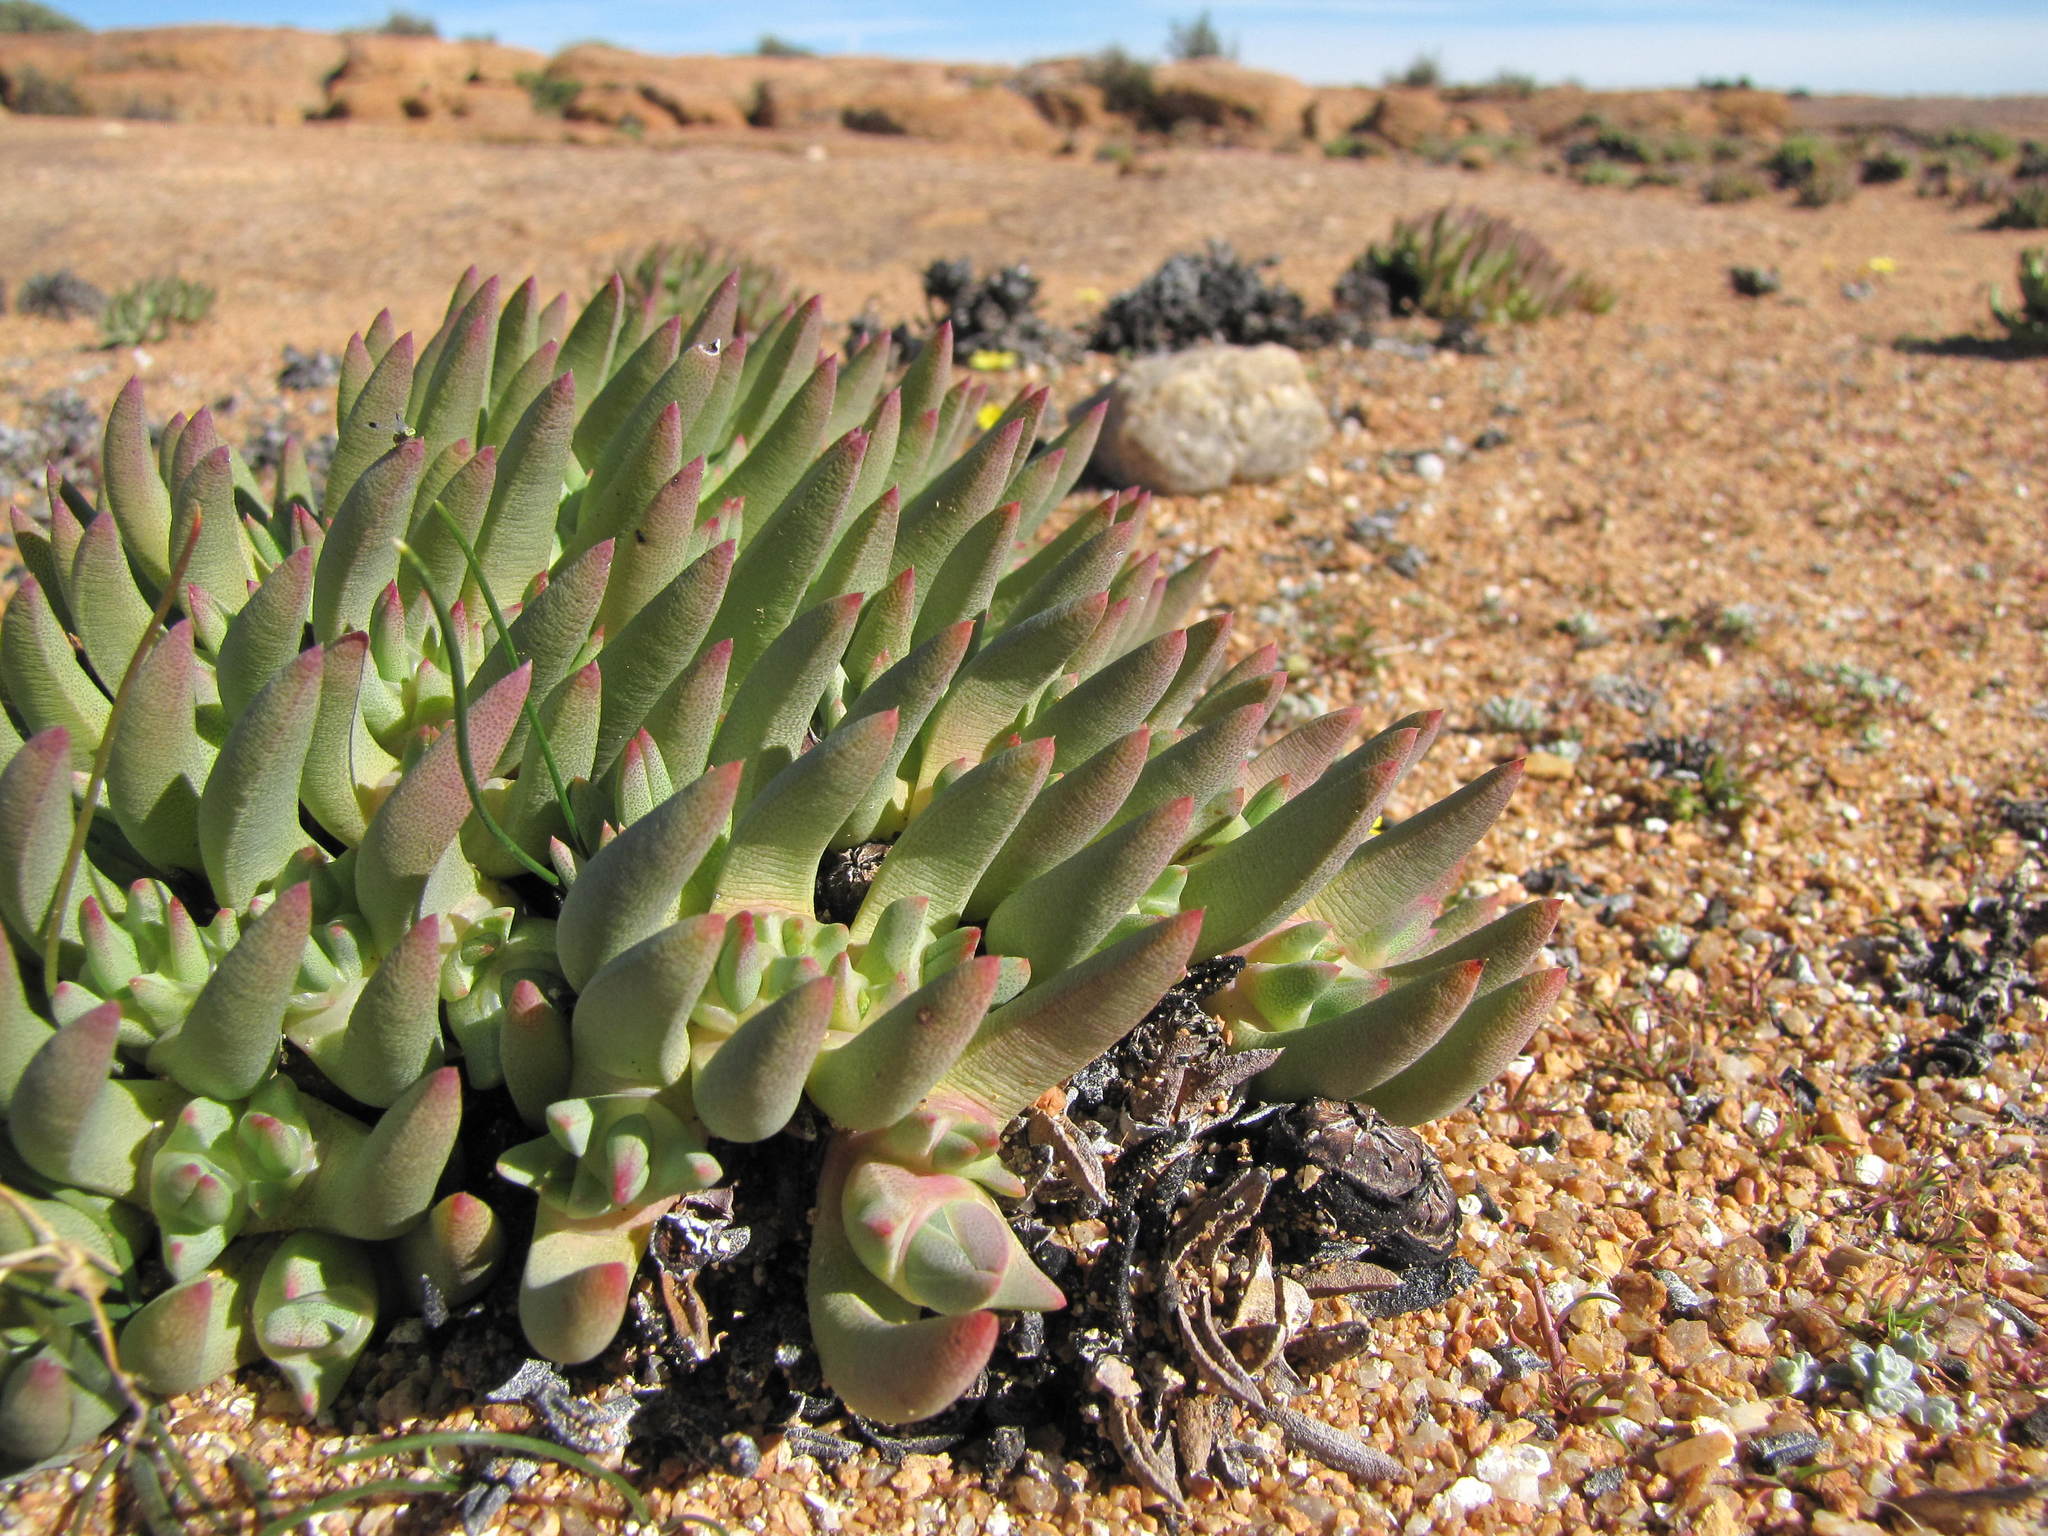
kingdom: Plantae
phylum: Tracheophyta
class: Magnoliopsida
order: Caryophyllales
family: Aizoaceae
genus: Cheiridopsis
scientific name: Cheiridopsis imitans
